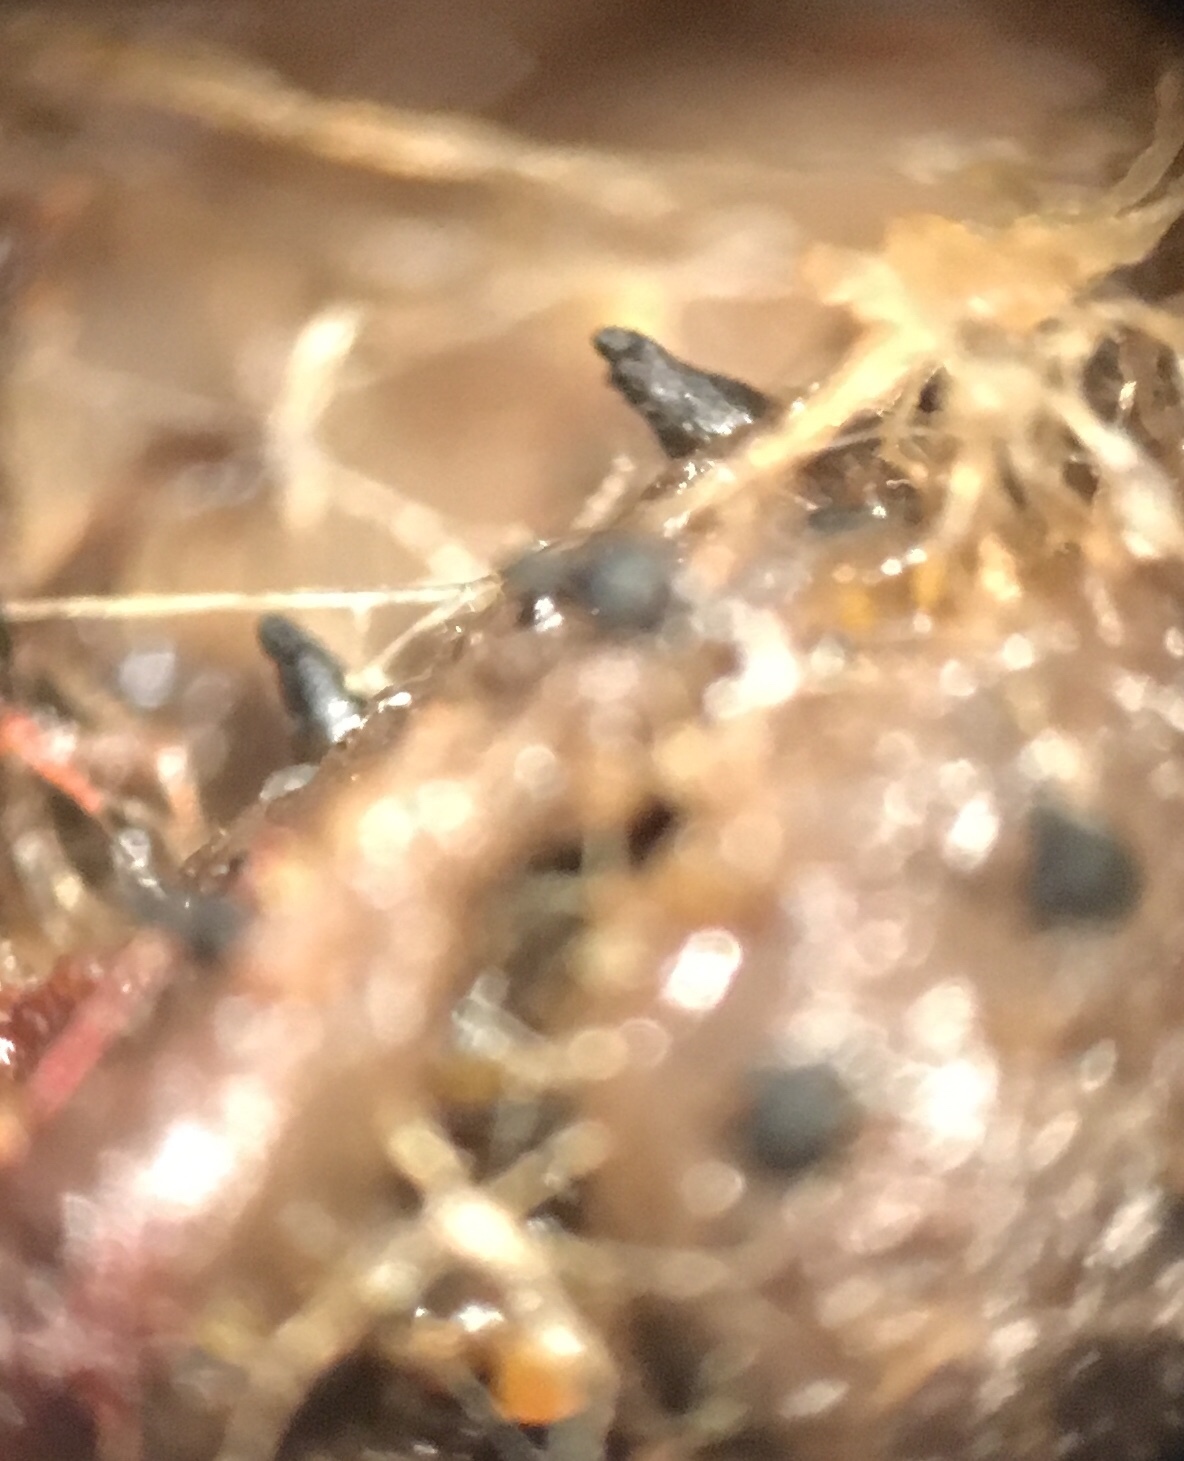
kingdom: Fungi
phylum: Ascomycota
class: Sordariomycetes
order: Sordariales
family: Lasiosphaeriaceae
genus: Schizothecium
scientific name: Schizothecium dakotense
